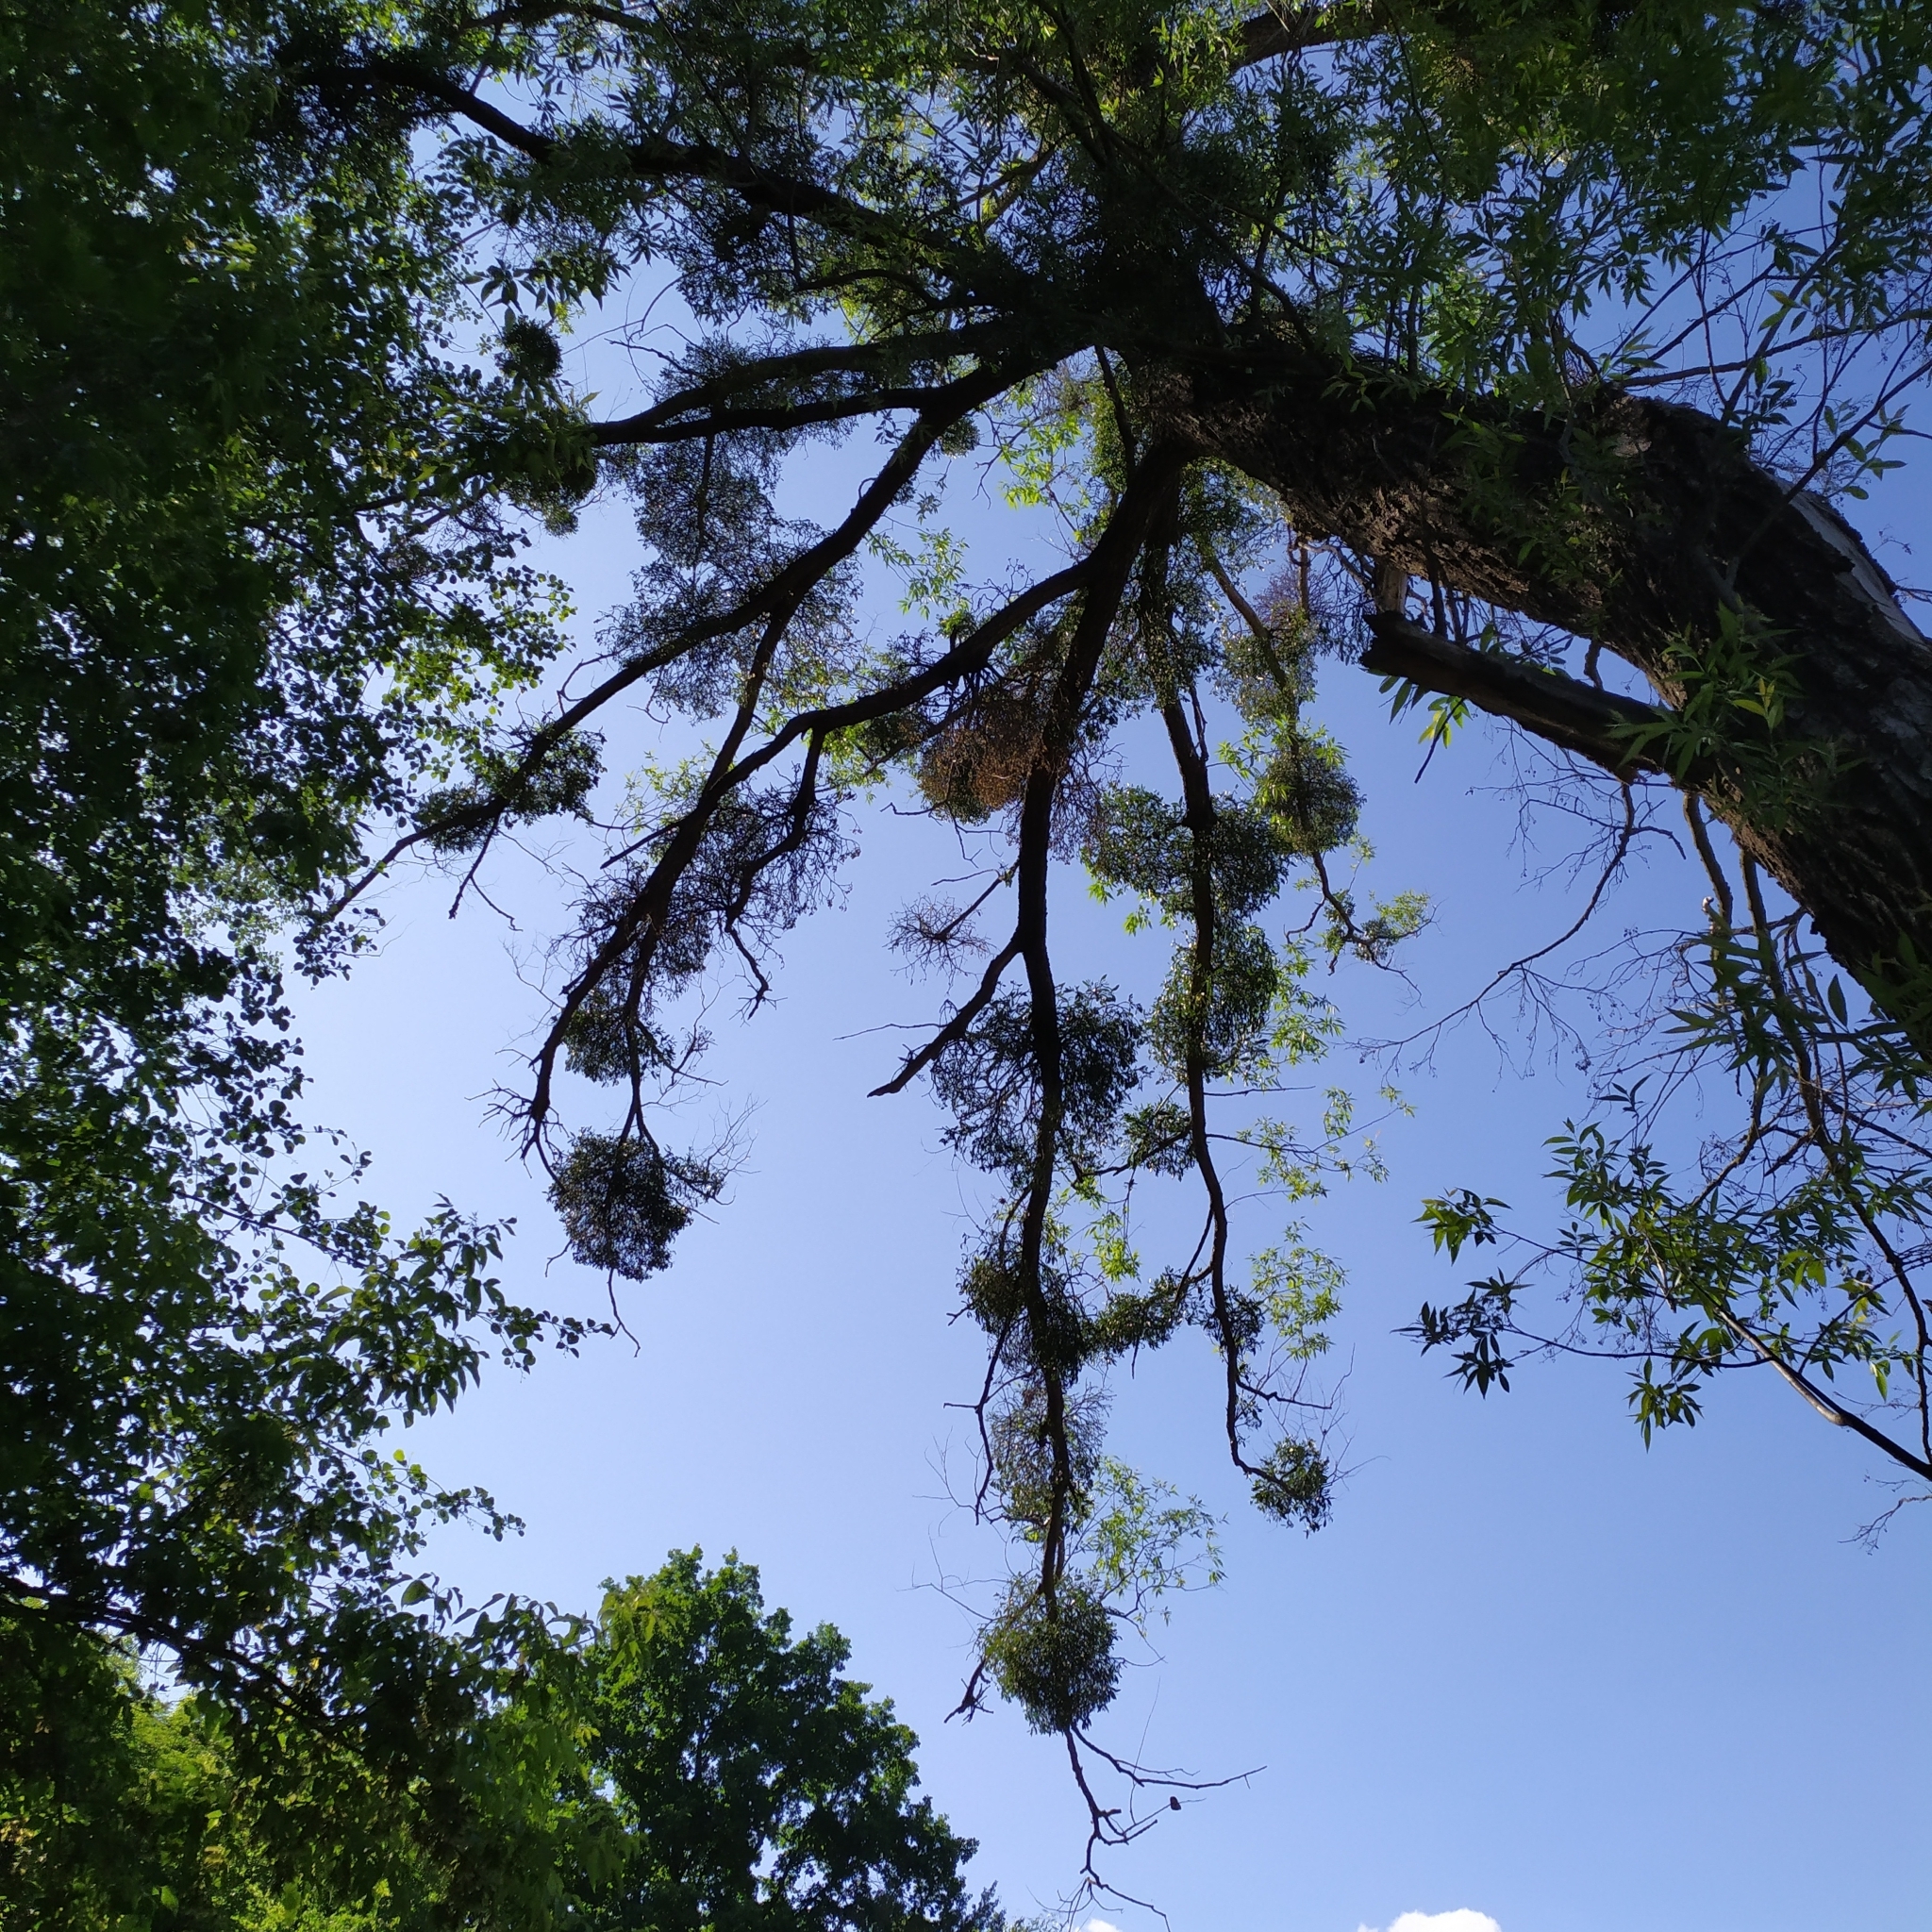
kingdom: Plantae
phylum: Tracheophyta
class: Magnoliopsida
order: Santalales
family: Viscaceae
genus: Viscum
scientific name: Viscum album
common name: Mistletoe
